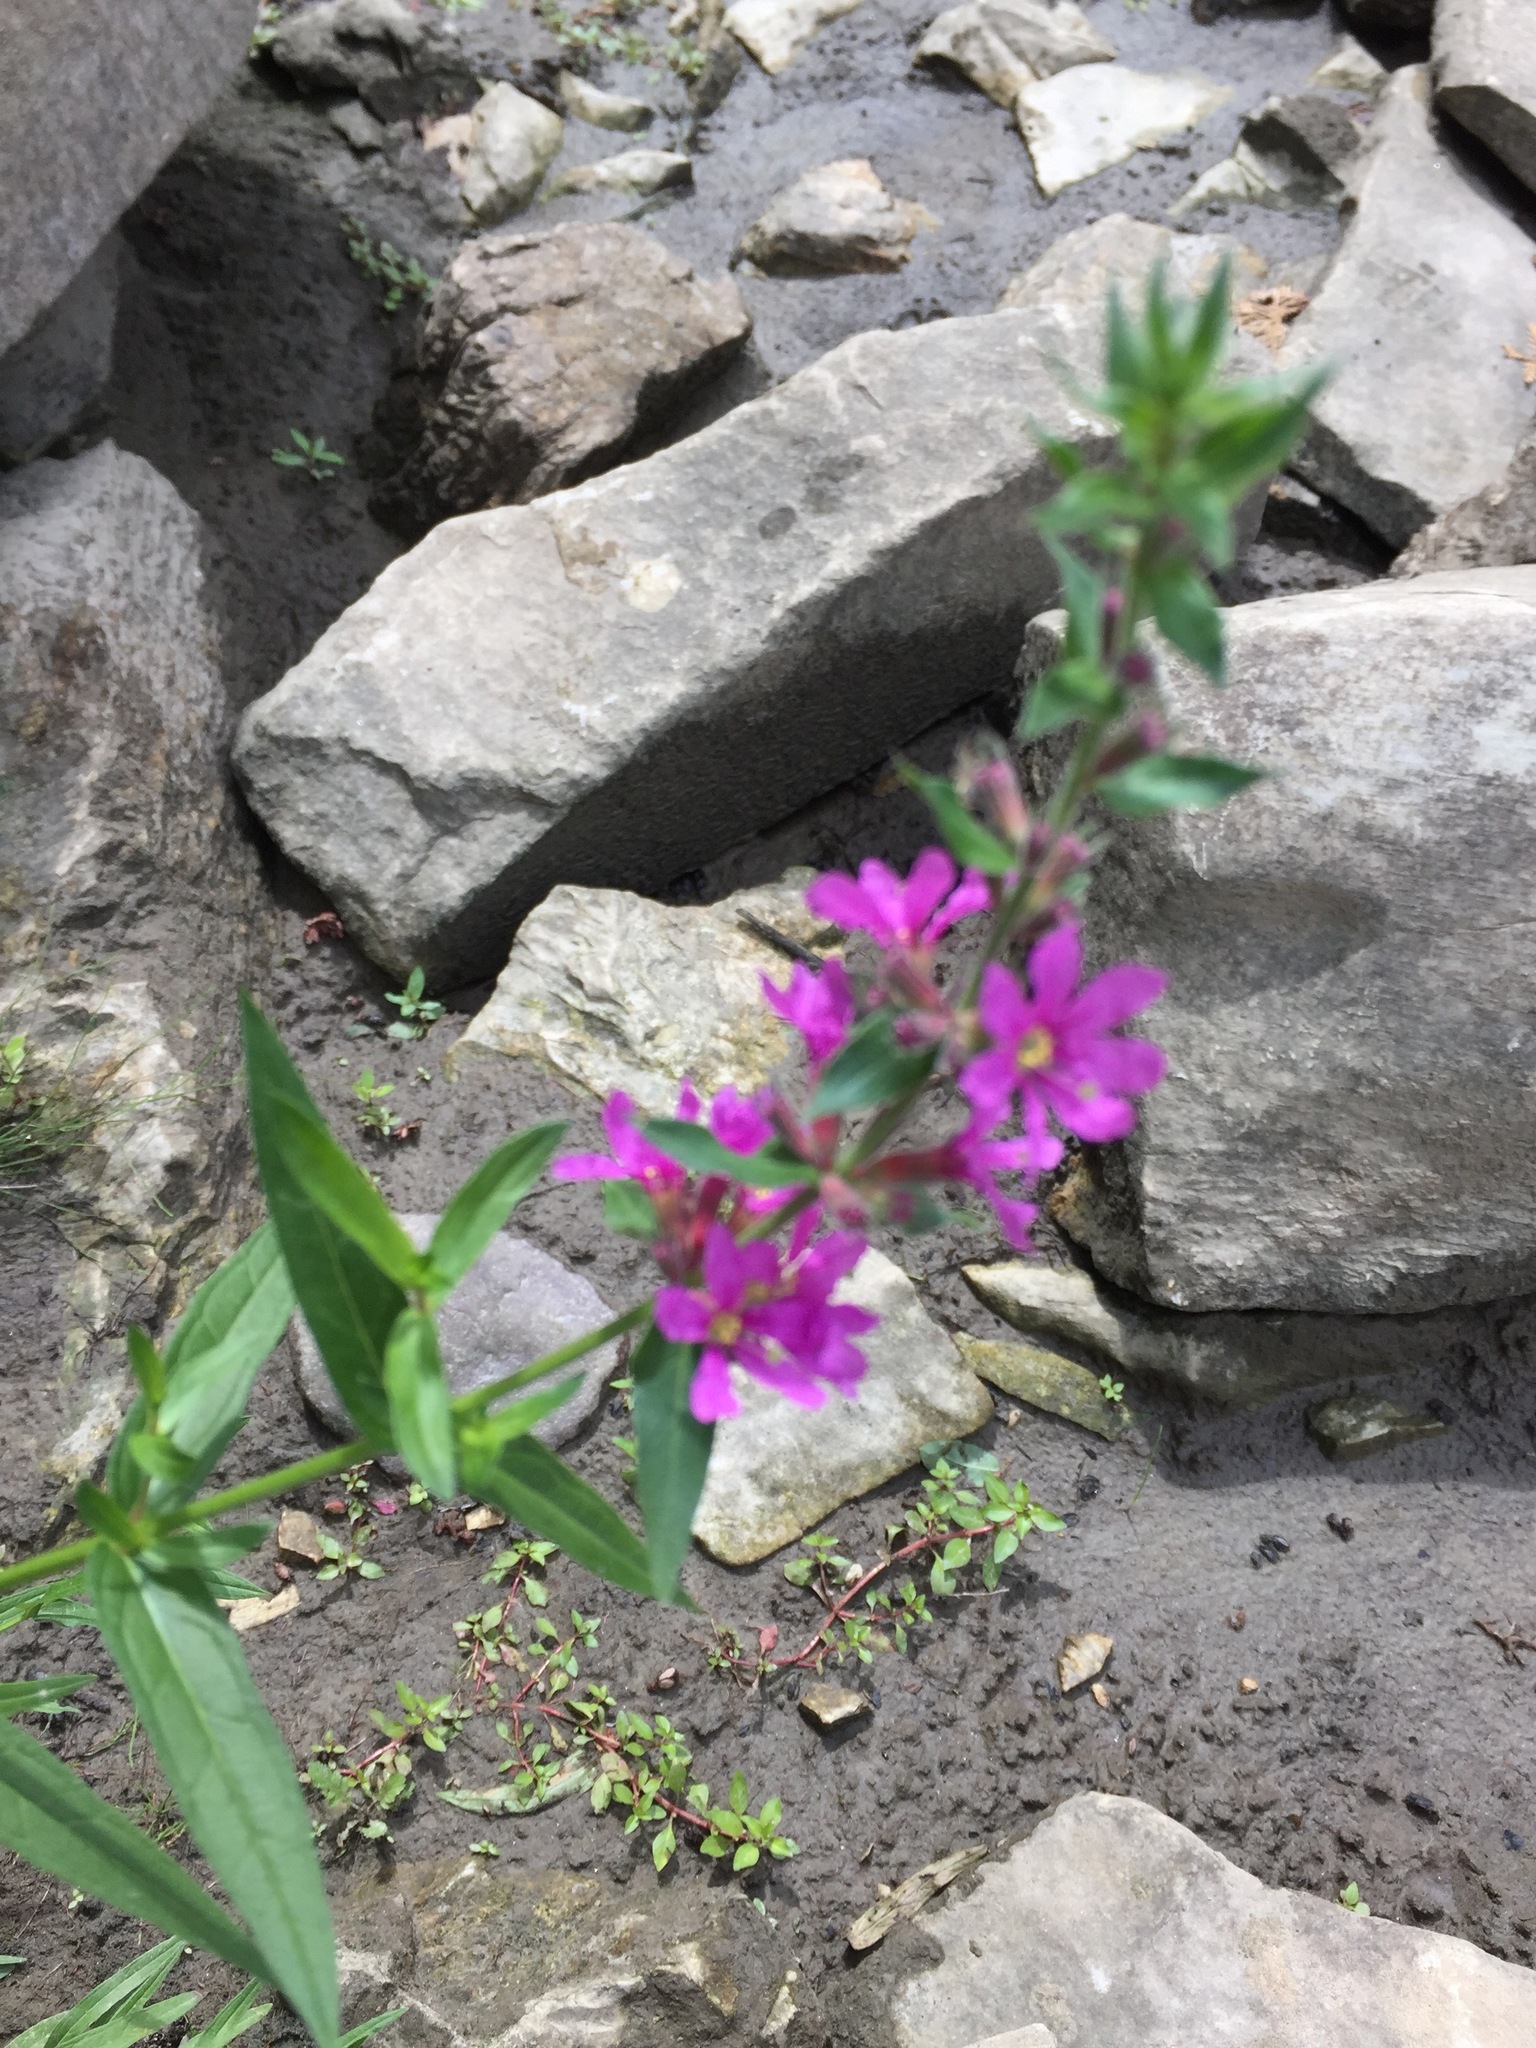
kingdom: Plantae
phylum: Tracheophyta
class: Magnoliopsida
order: Myrtales
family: Lythraceae
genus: Lythrum
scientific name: Lythrum salicaria
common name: Purple loosestrife
